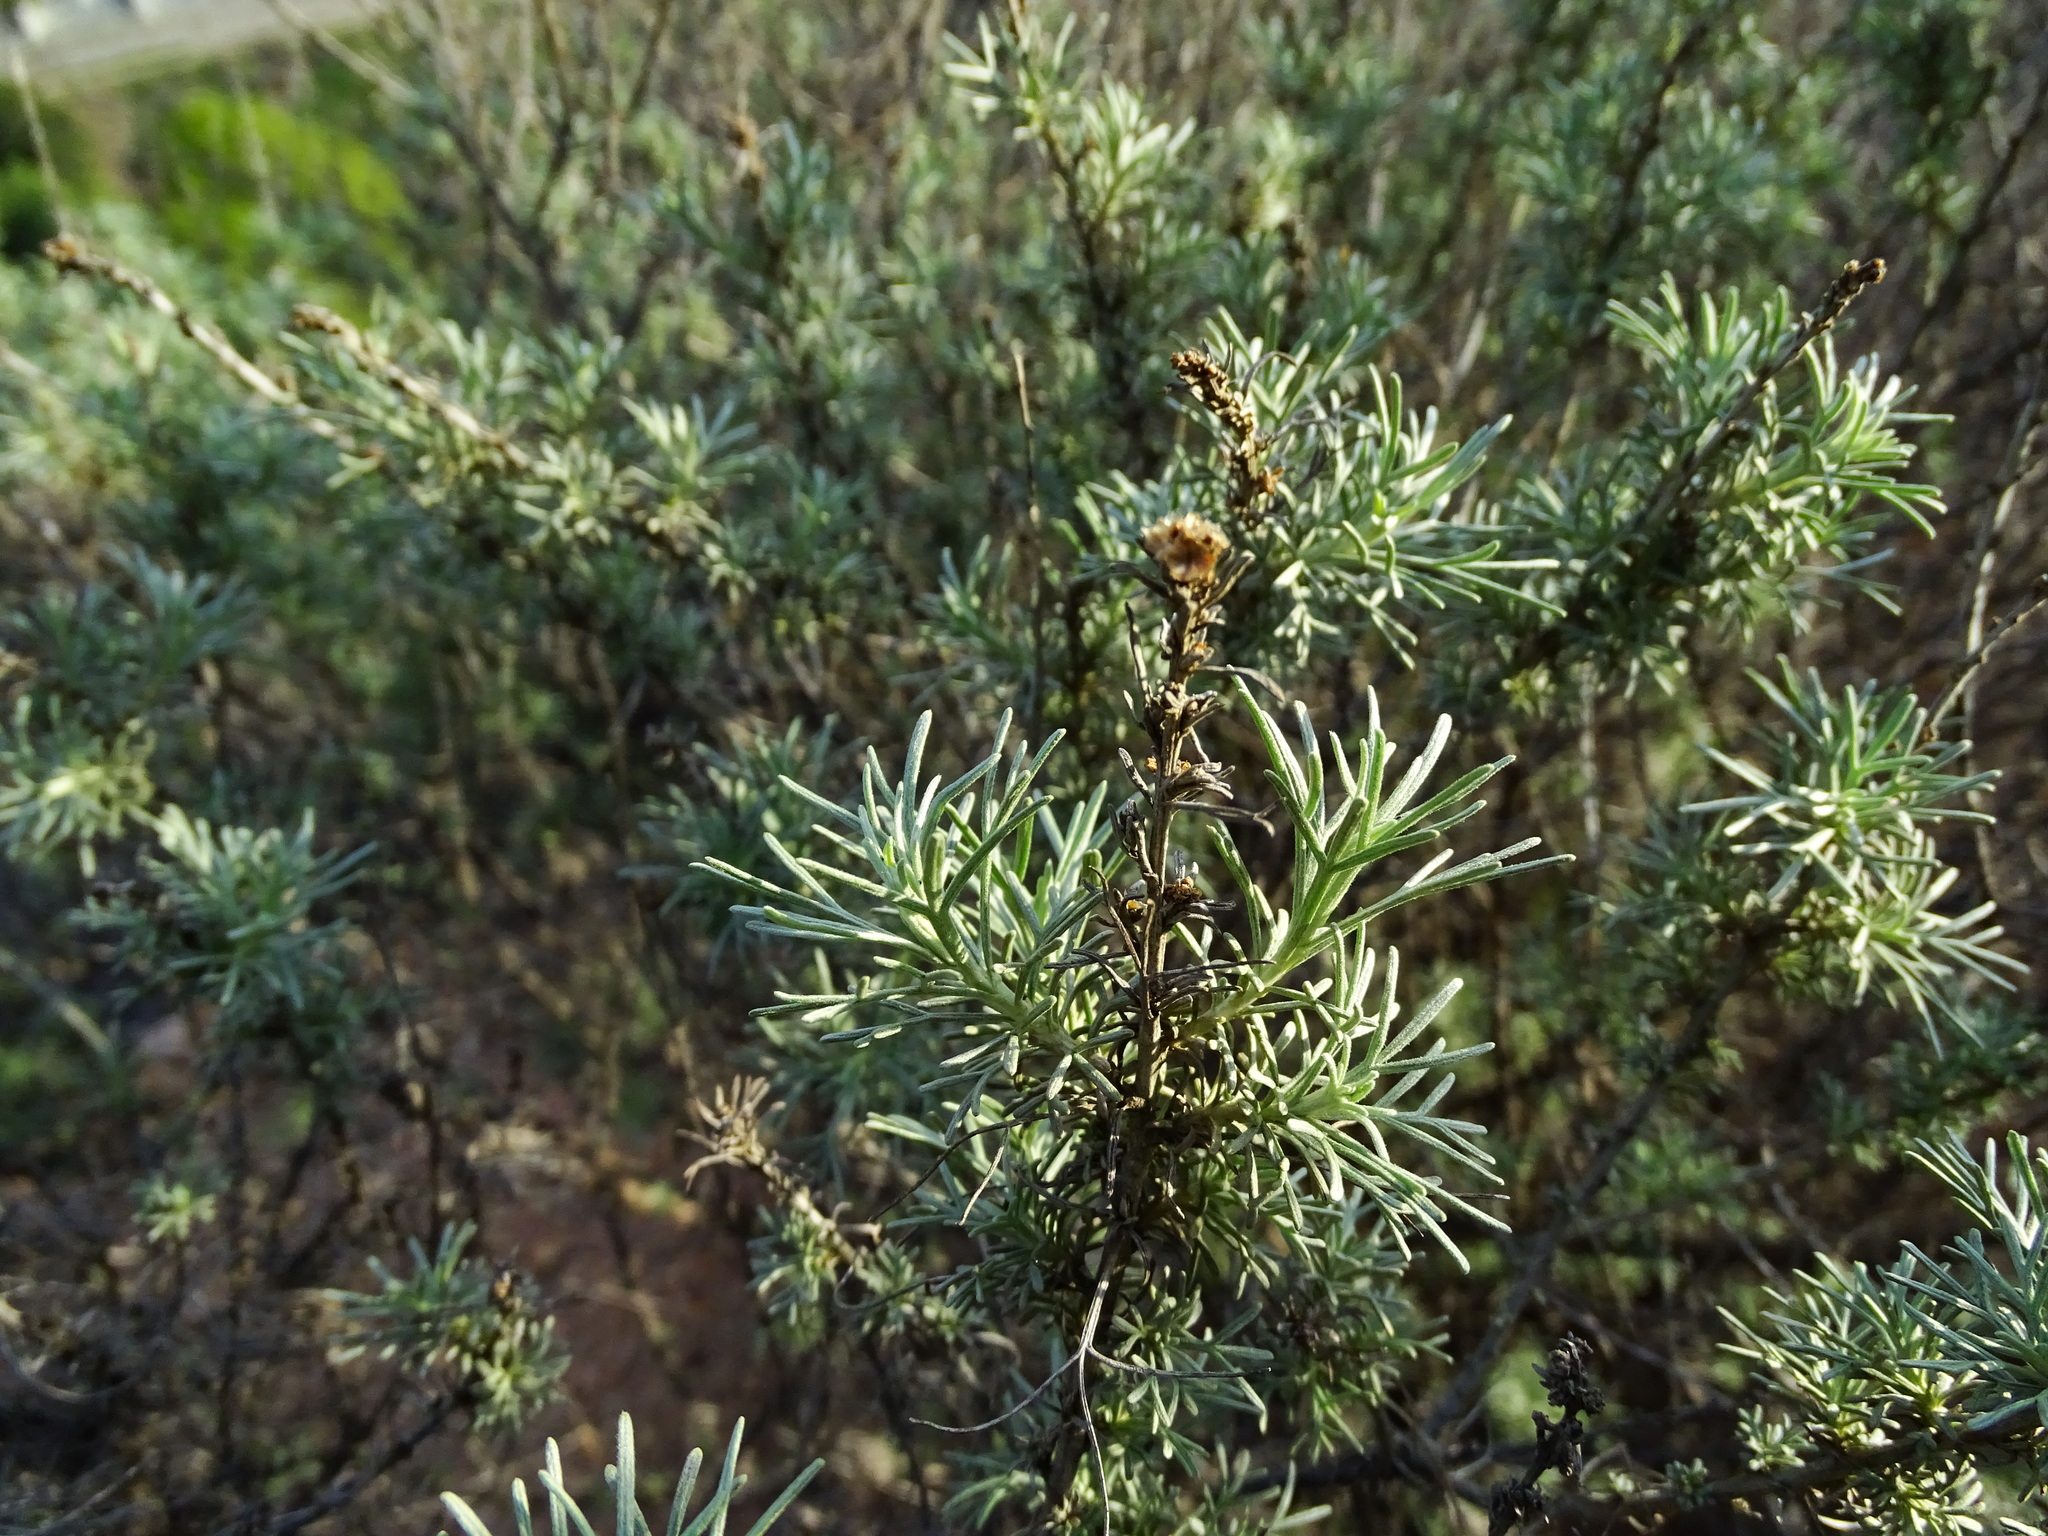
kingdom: Plantae
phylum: Tracheophyta
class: Magnoliopsida
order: Asterales
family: Asteraceae
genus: Artemisia
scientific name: Artemisia californica
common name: California sagebrush
